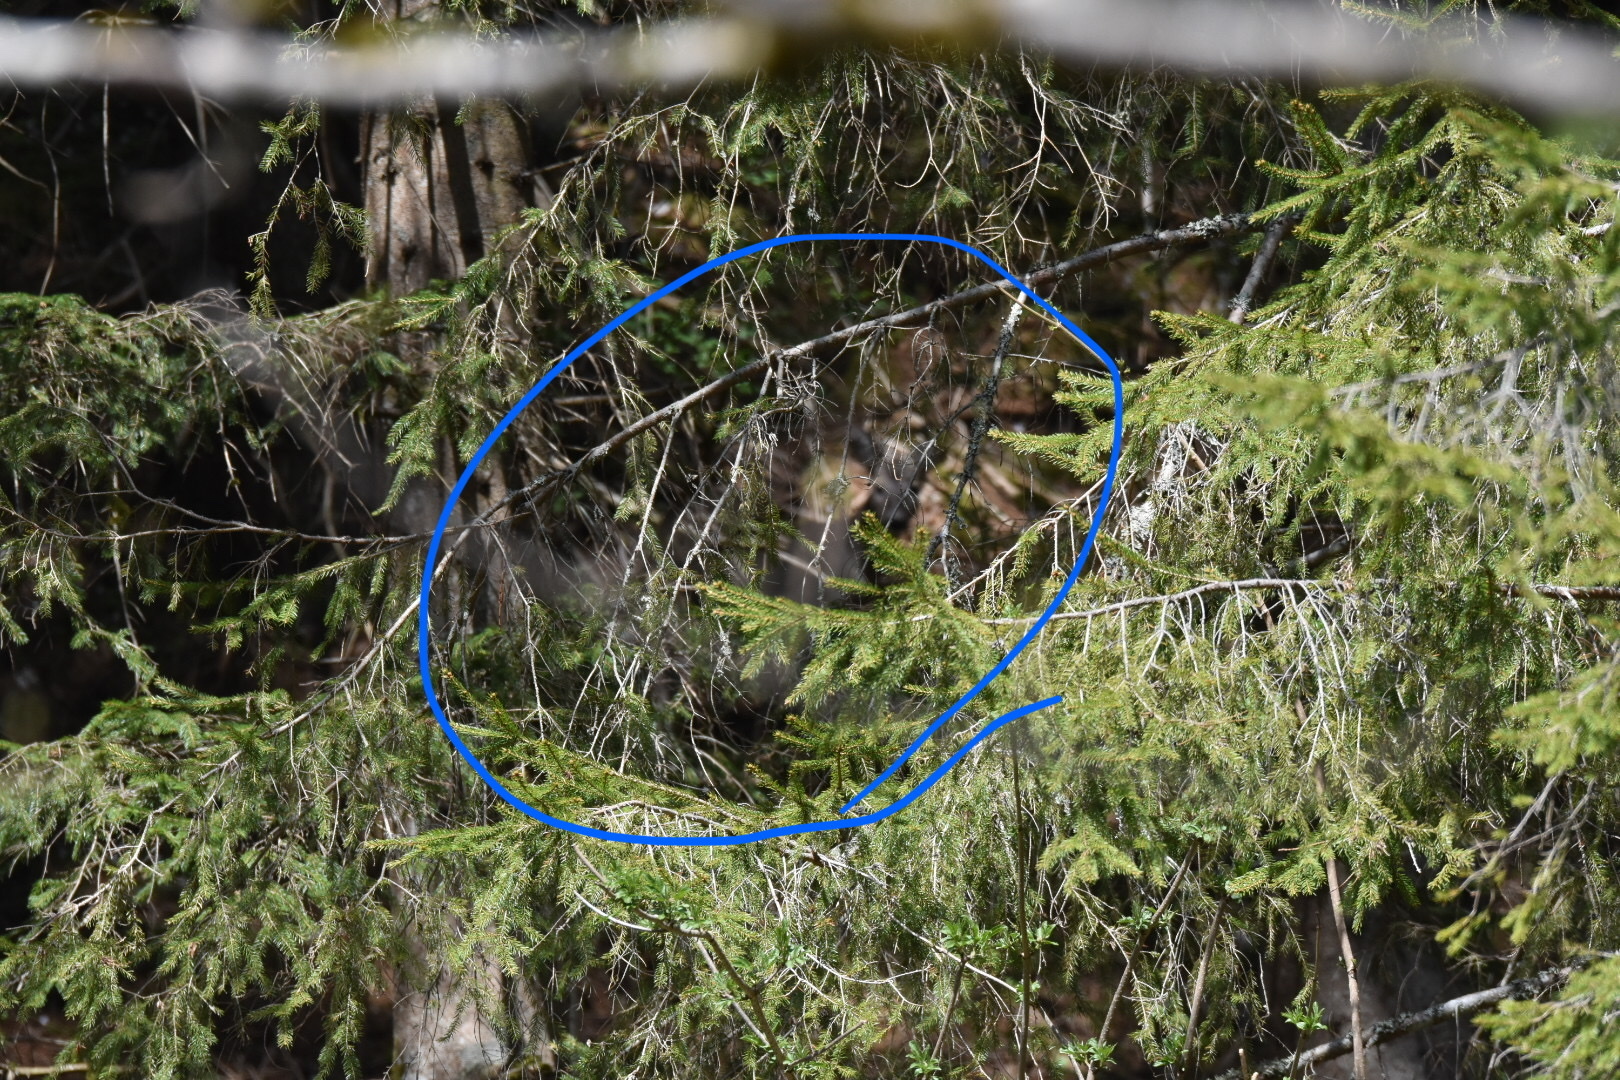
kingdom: Animalia
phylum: Chordata
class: Mammalia
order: Artiodactyla
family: Cervidae
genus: Capreolus
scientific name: Capreolus capreolus
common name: Western roe deer
